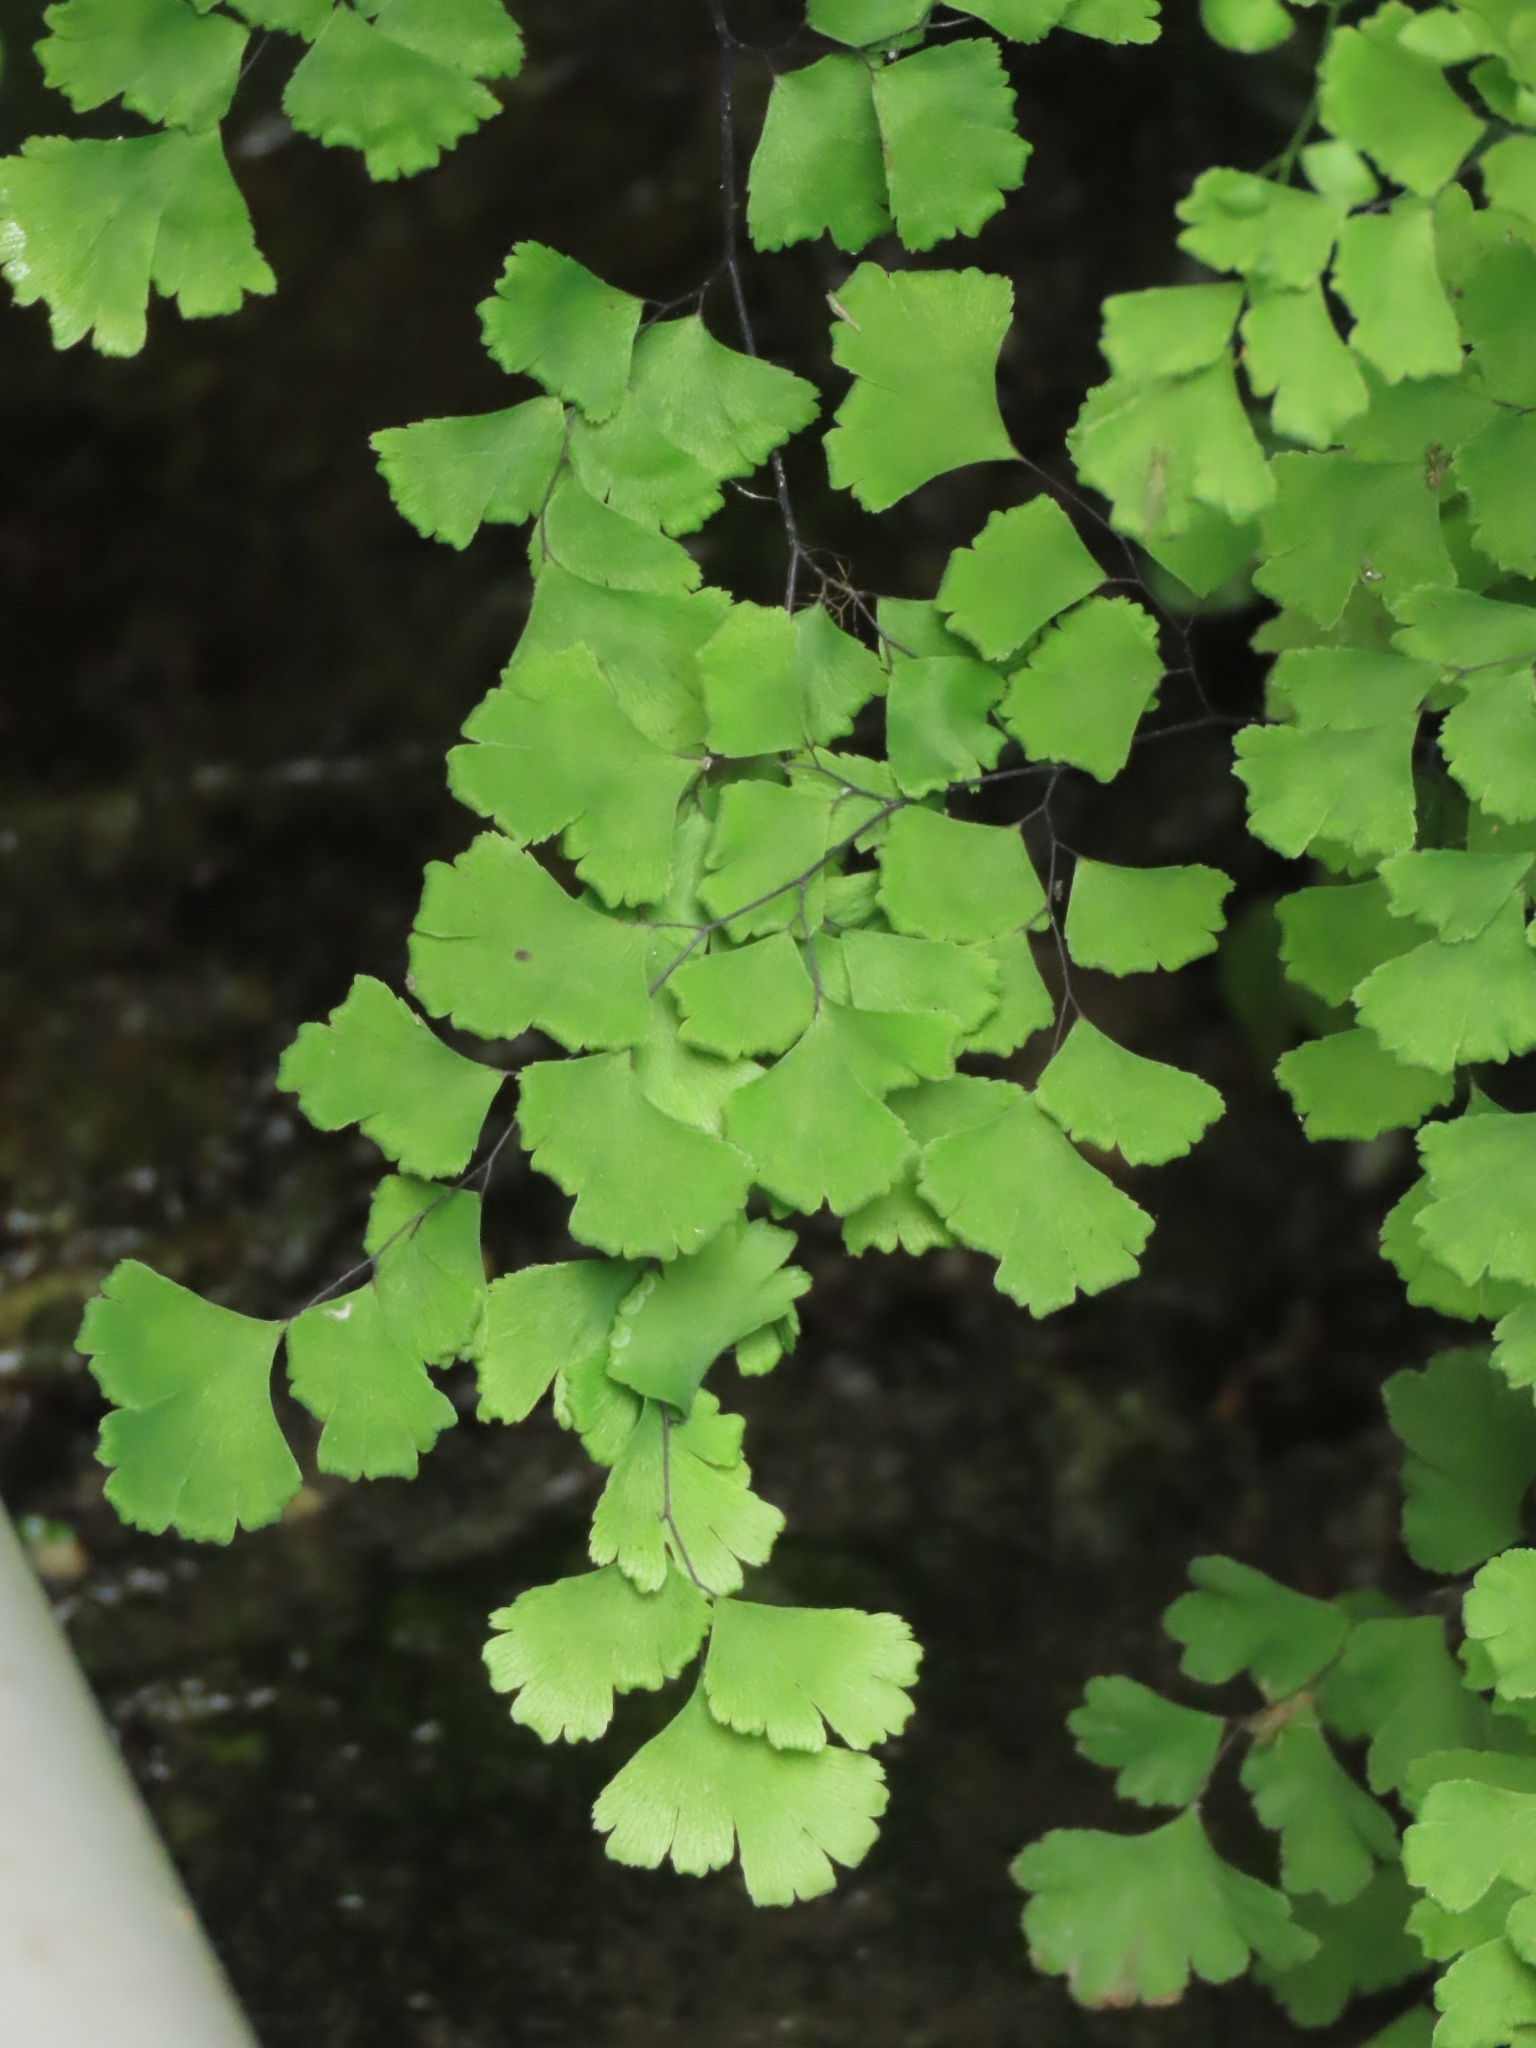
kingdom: Plantae
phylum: Tracheophyta
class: Polypodiopsida
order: Polypodiales
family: Pteridaceae
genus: Adiantum
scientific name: Adiantum capillus-veneris
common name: Maidenhair fern
